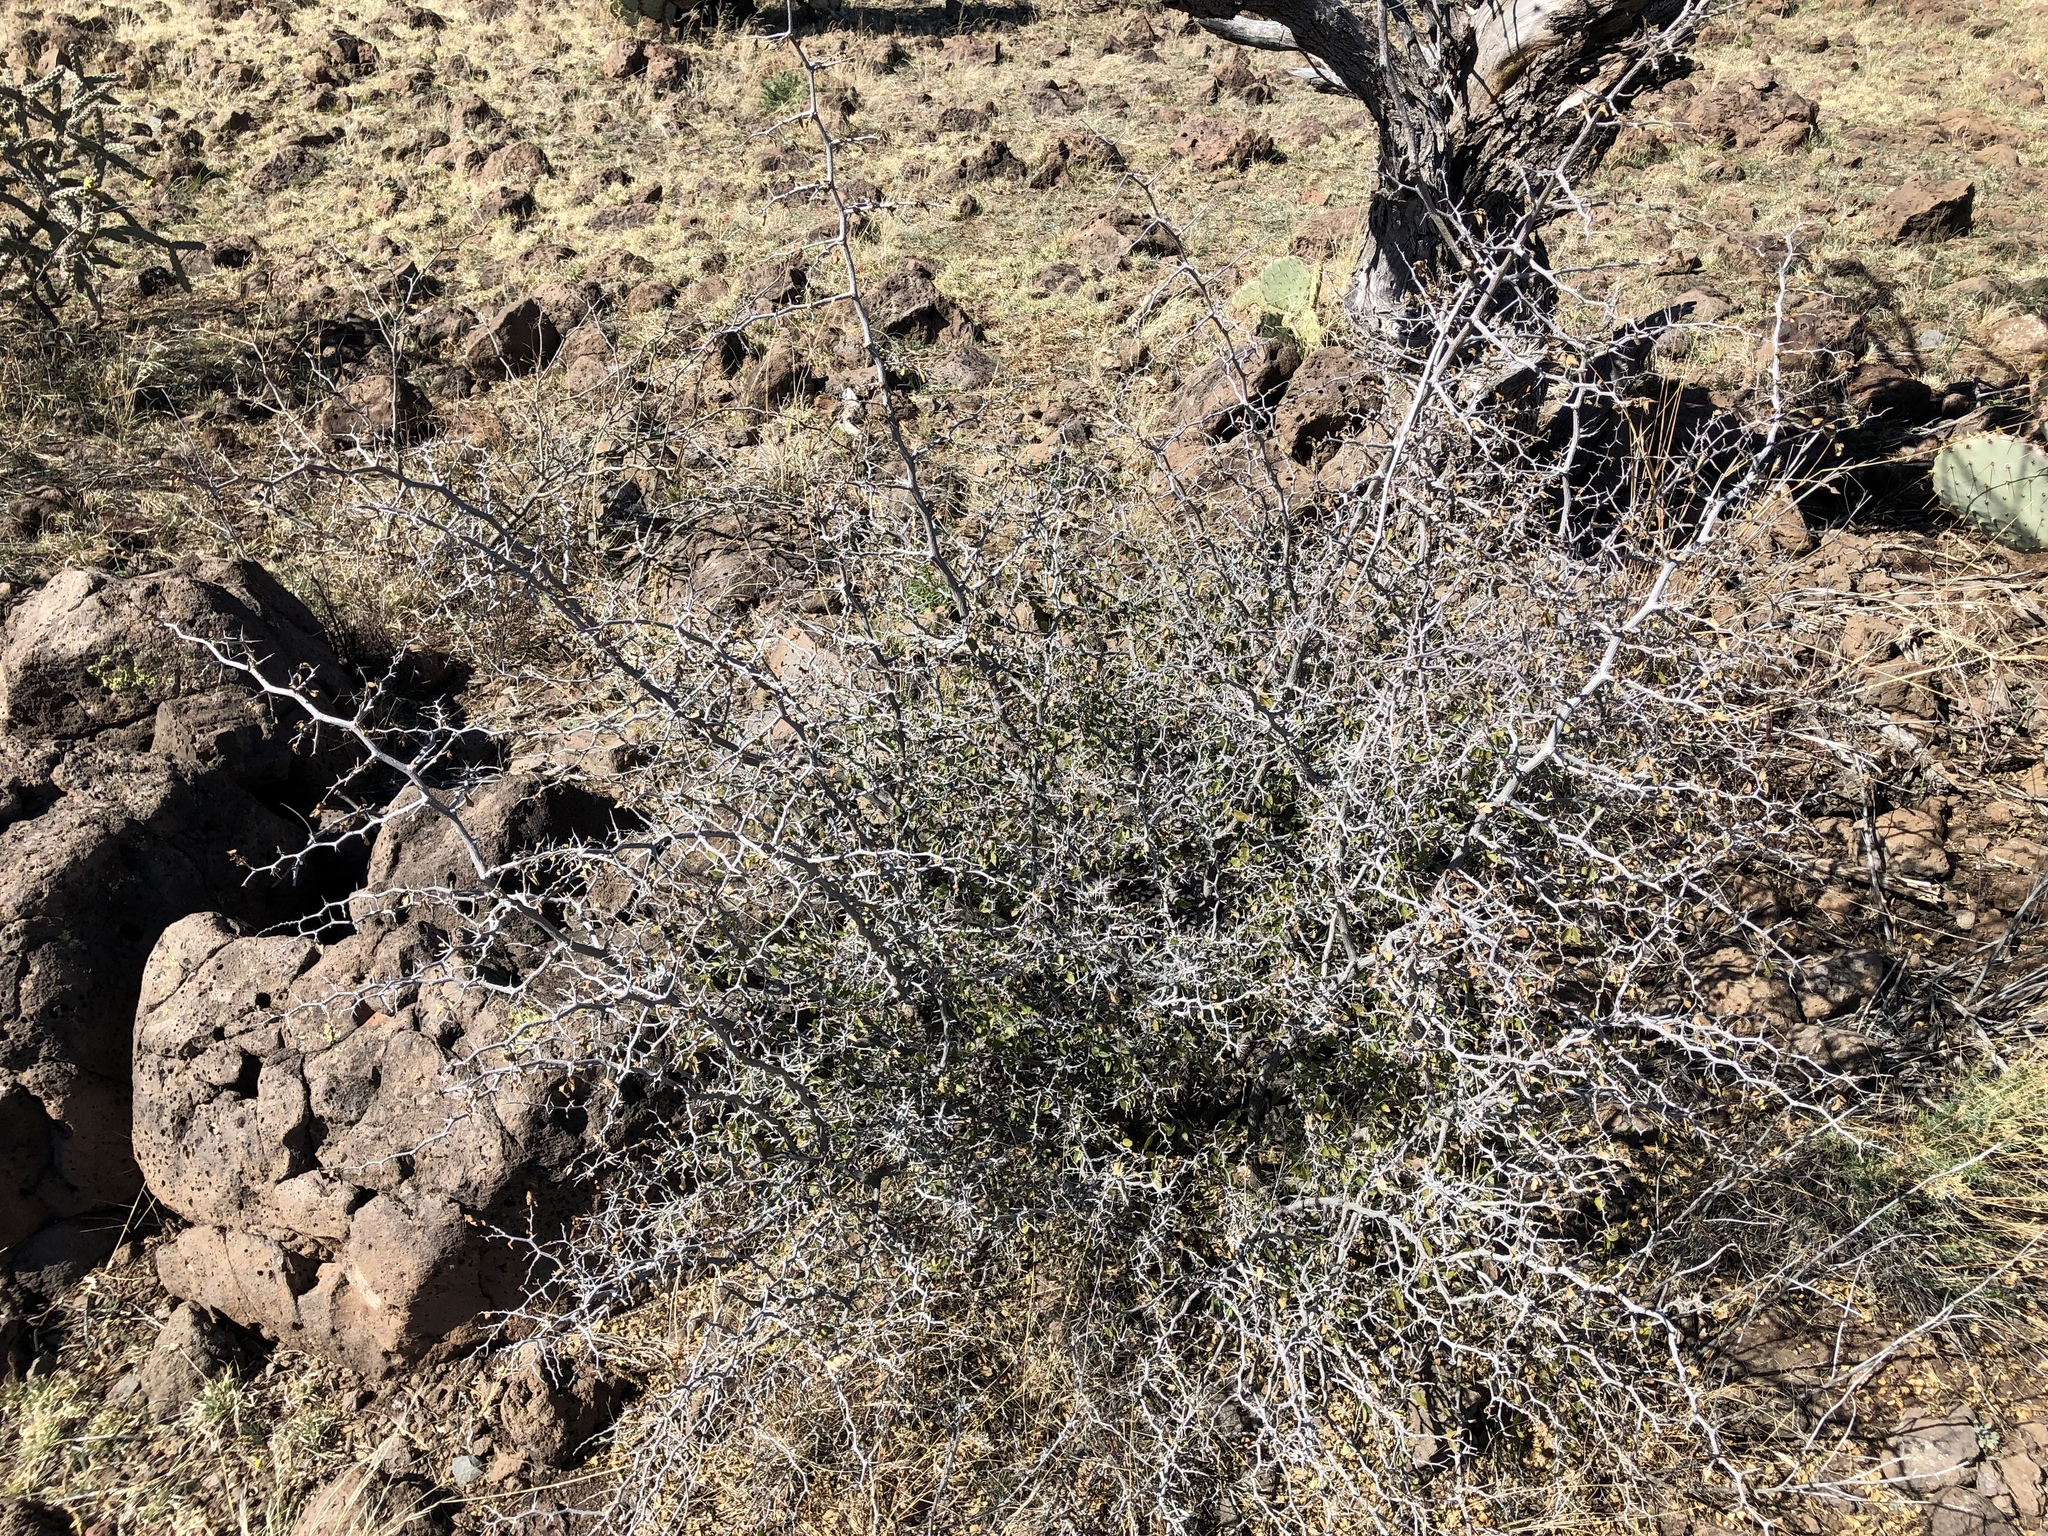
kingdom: Plantae
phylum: Tracheophyta
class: Magnoliopsida
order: Rosales
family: Cannabaceae
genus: Celtis
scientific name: Celtis pallida
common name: Desert hackberry
